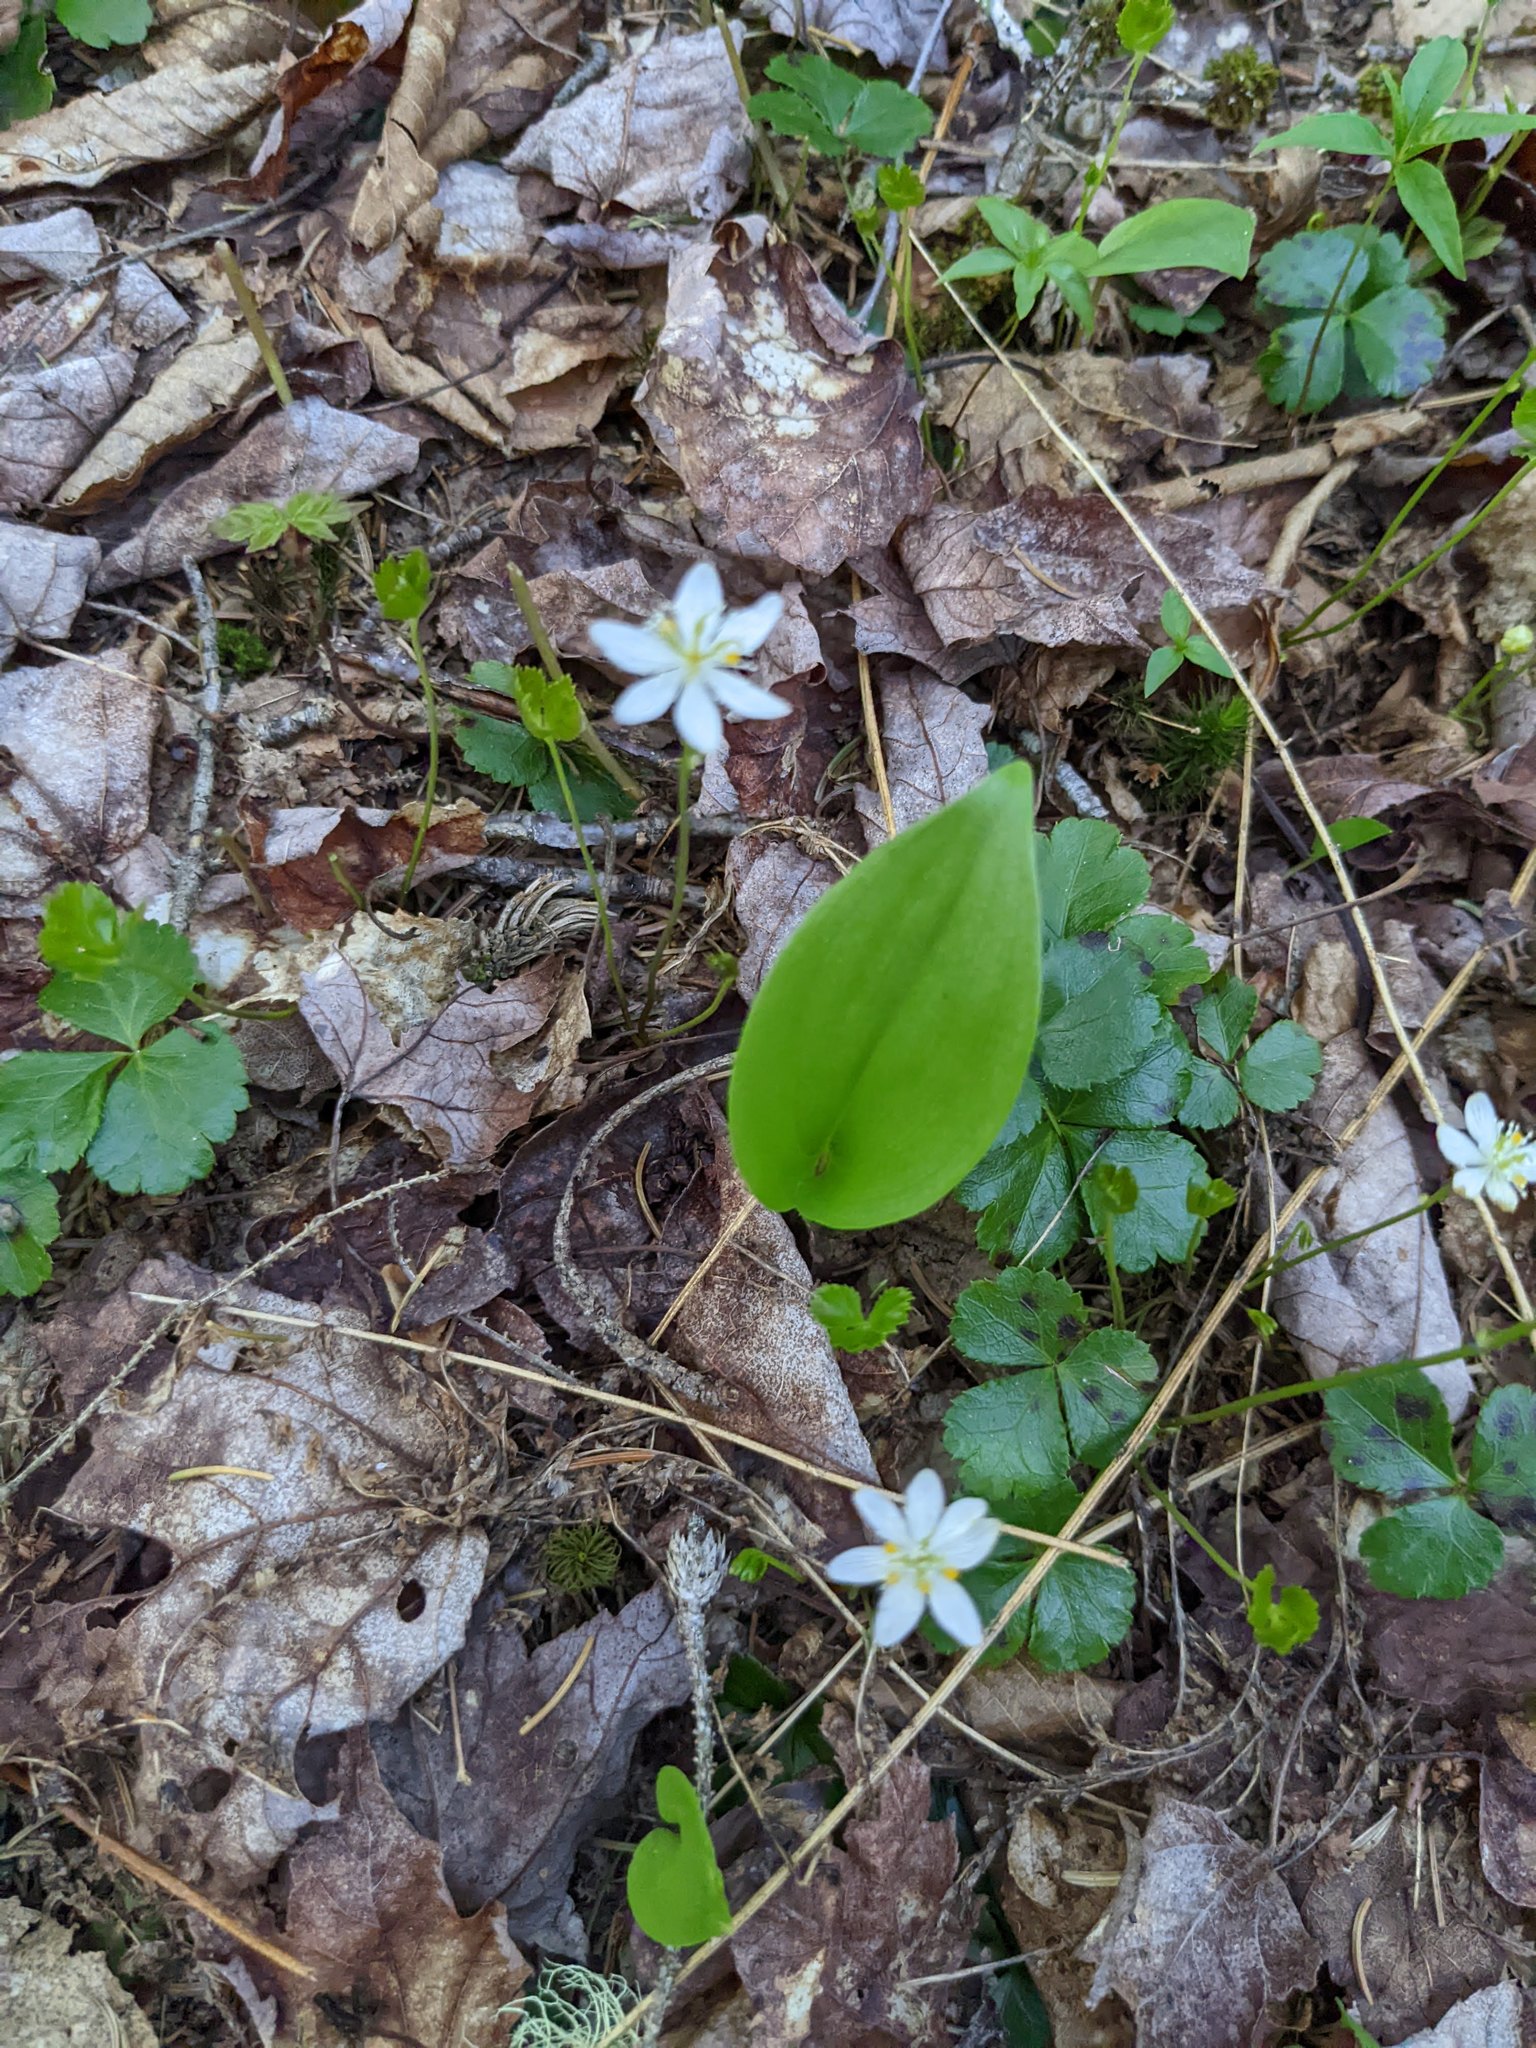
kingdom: Plantae
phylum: Tracheophyta
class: Liliopsida
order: Asparagales
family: Asparagaceae
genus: Maianthemum
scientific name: Maianthemum canadense
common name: False lily-of-the-valley
